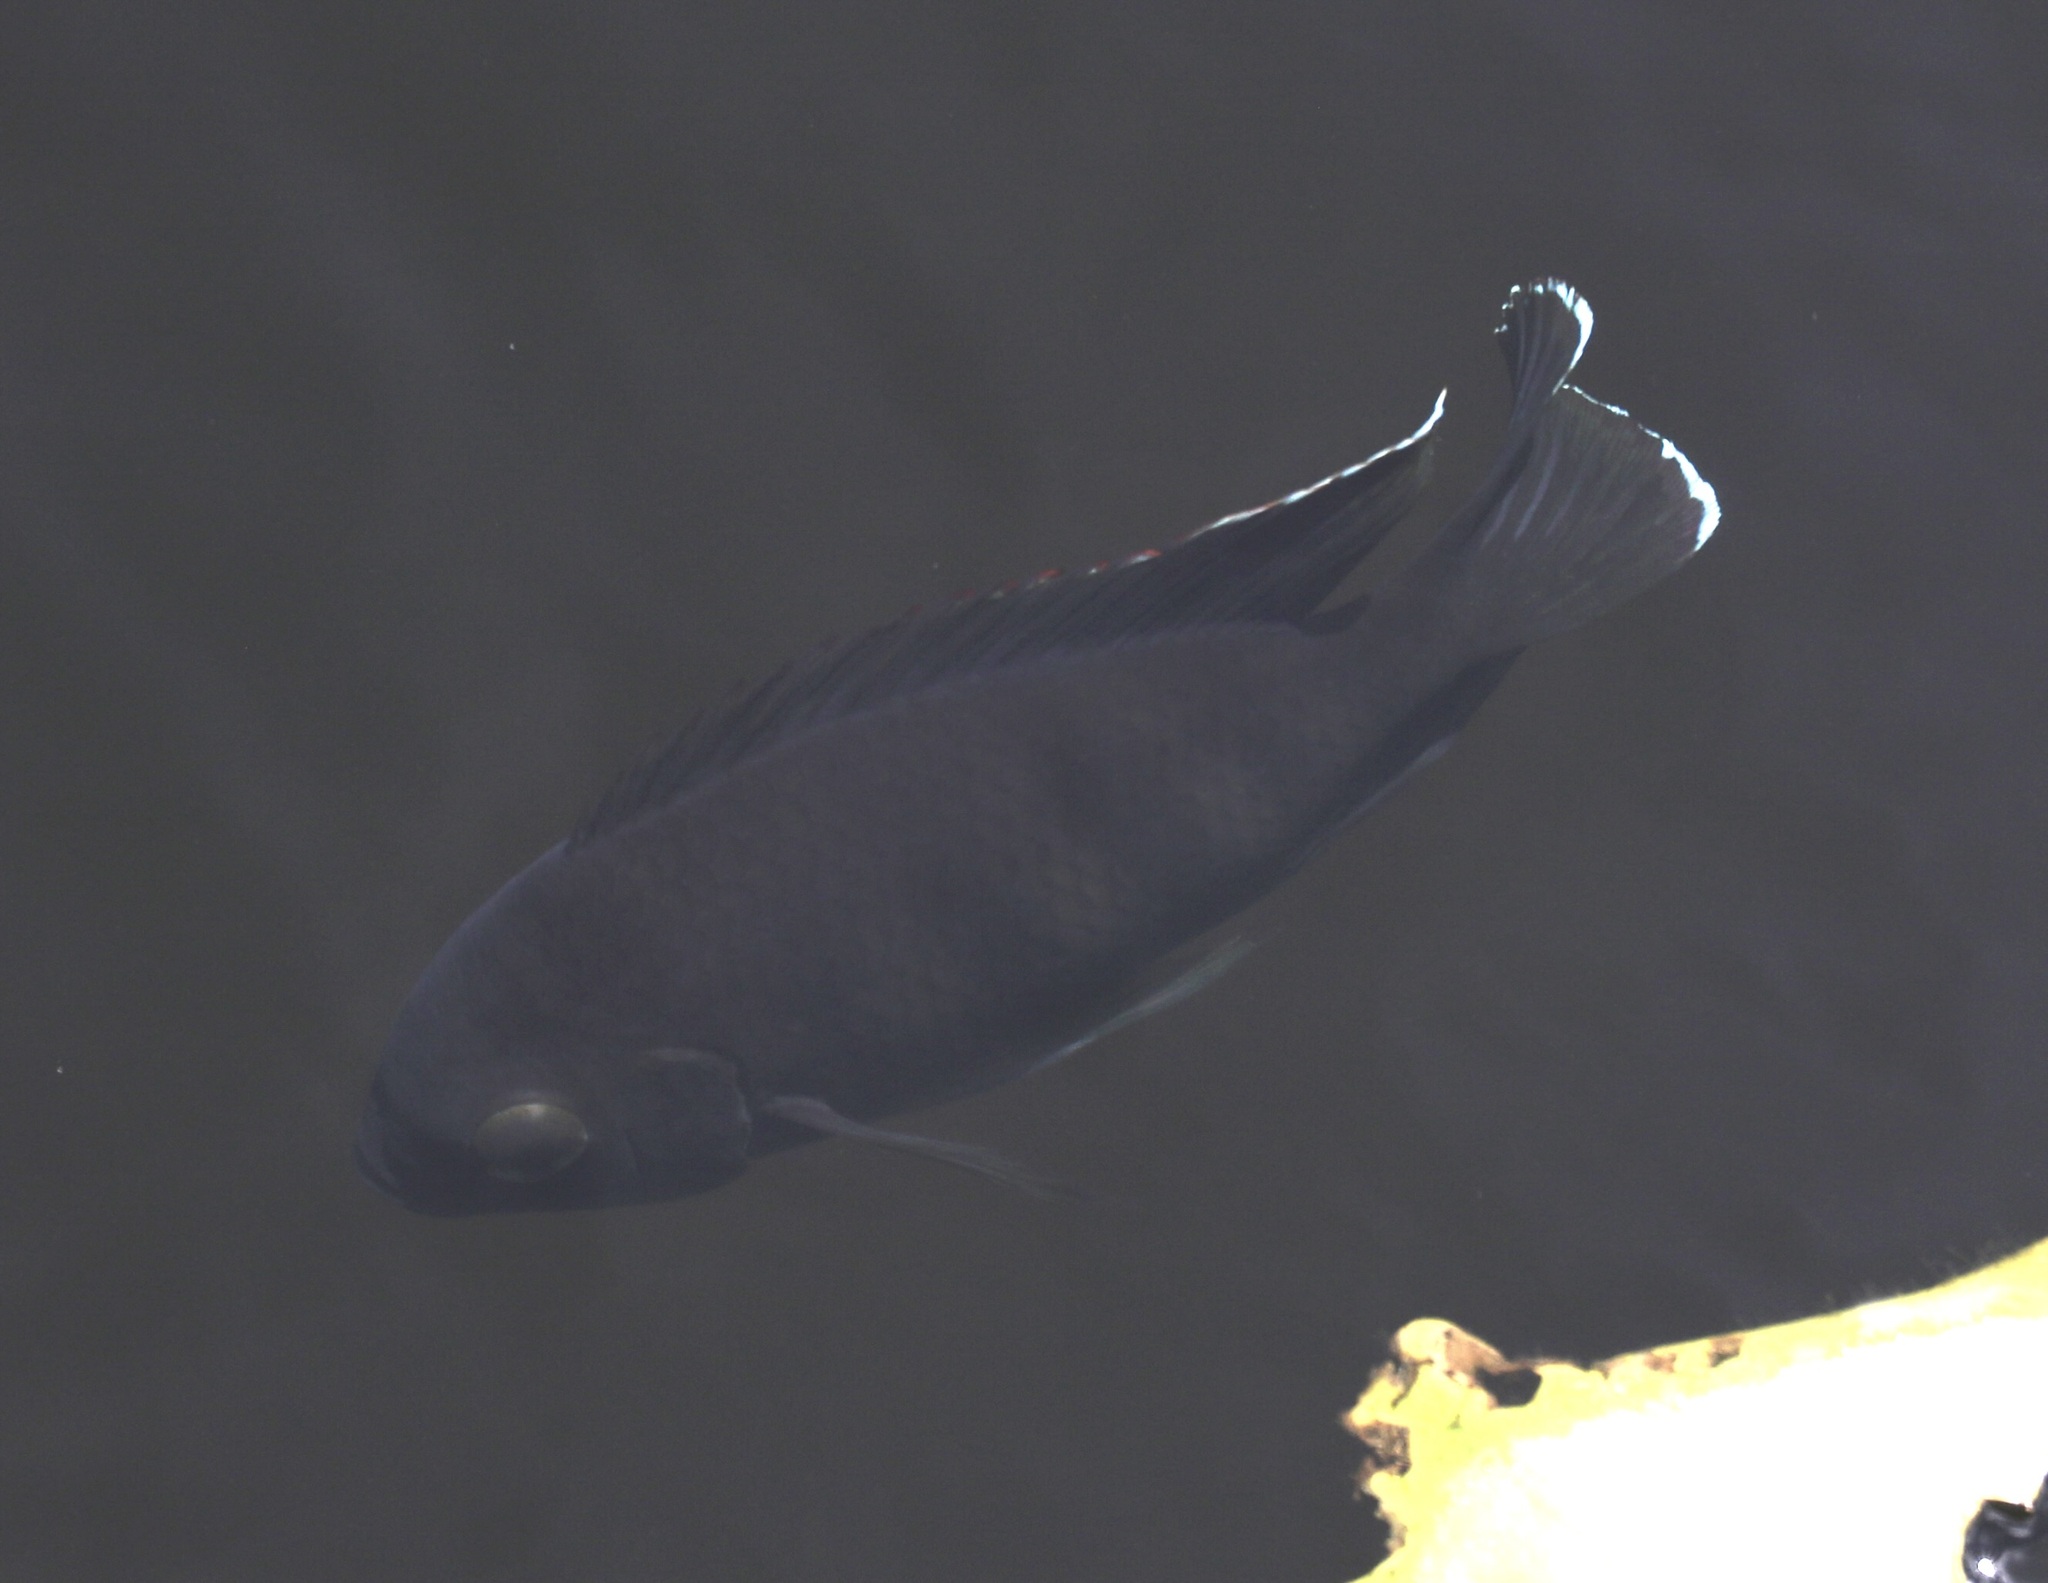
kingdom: Animalia
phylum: Chordata
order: Perciformes
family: Cichlidae
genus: Pelmatolapia
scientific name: Pelmatolapia mariae
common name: Spotted tilapia
